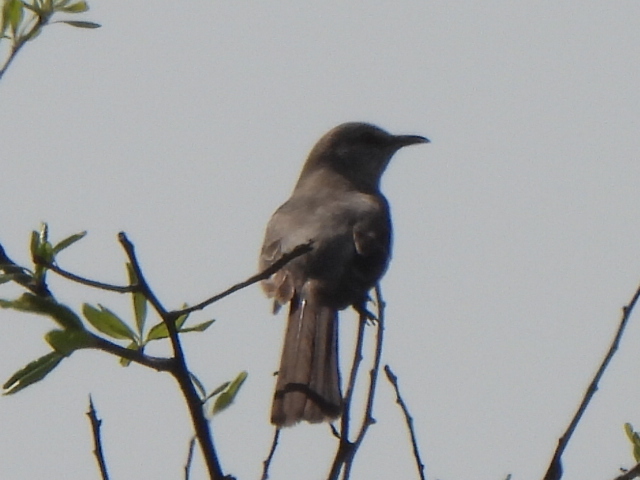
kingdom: Animalia
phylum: Chordata
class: Aves
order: Passeriformes
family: Mimidae
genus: Mimus
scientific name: Mimus polyglottos
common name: Northern mockingbird
